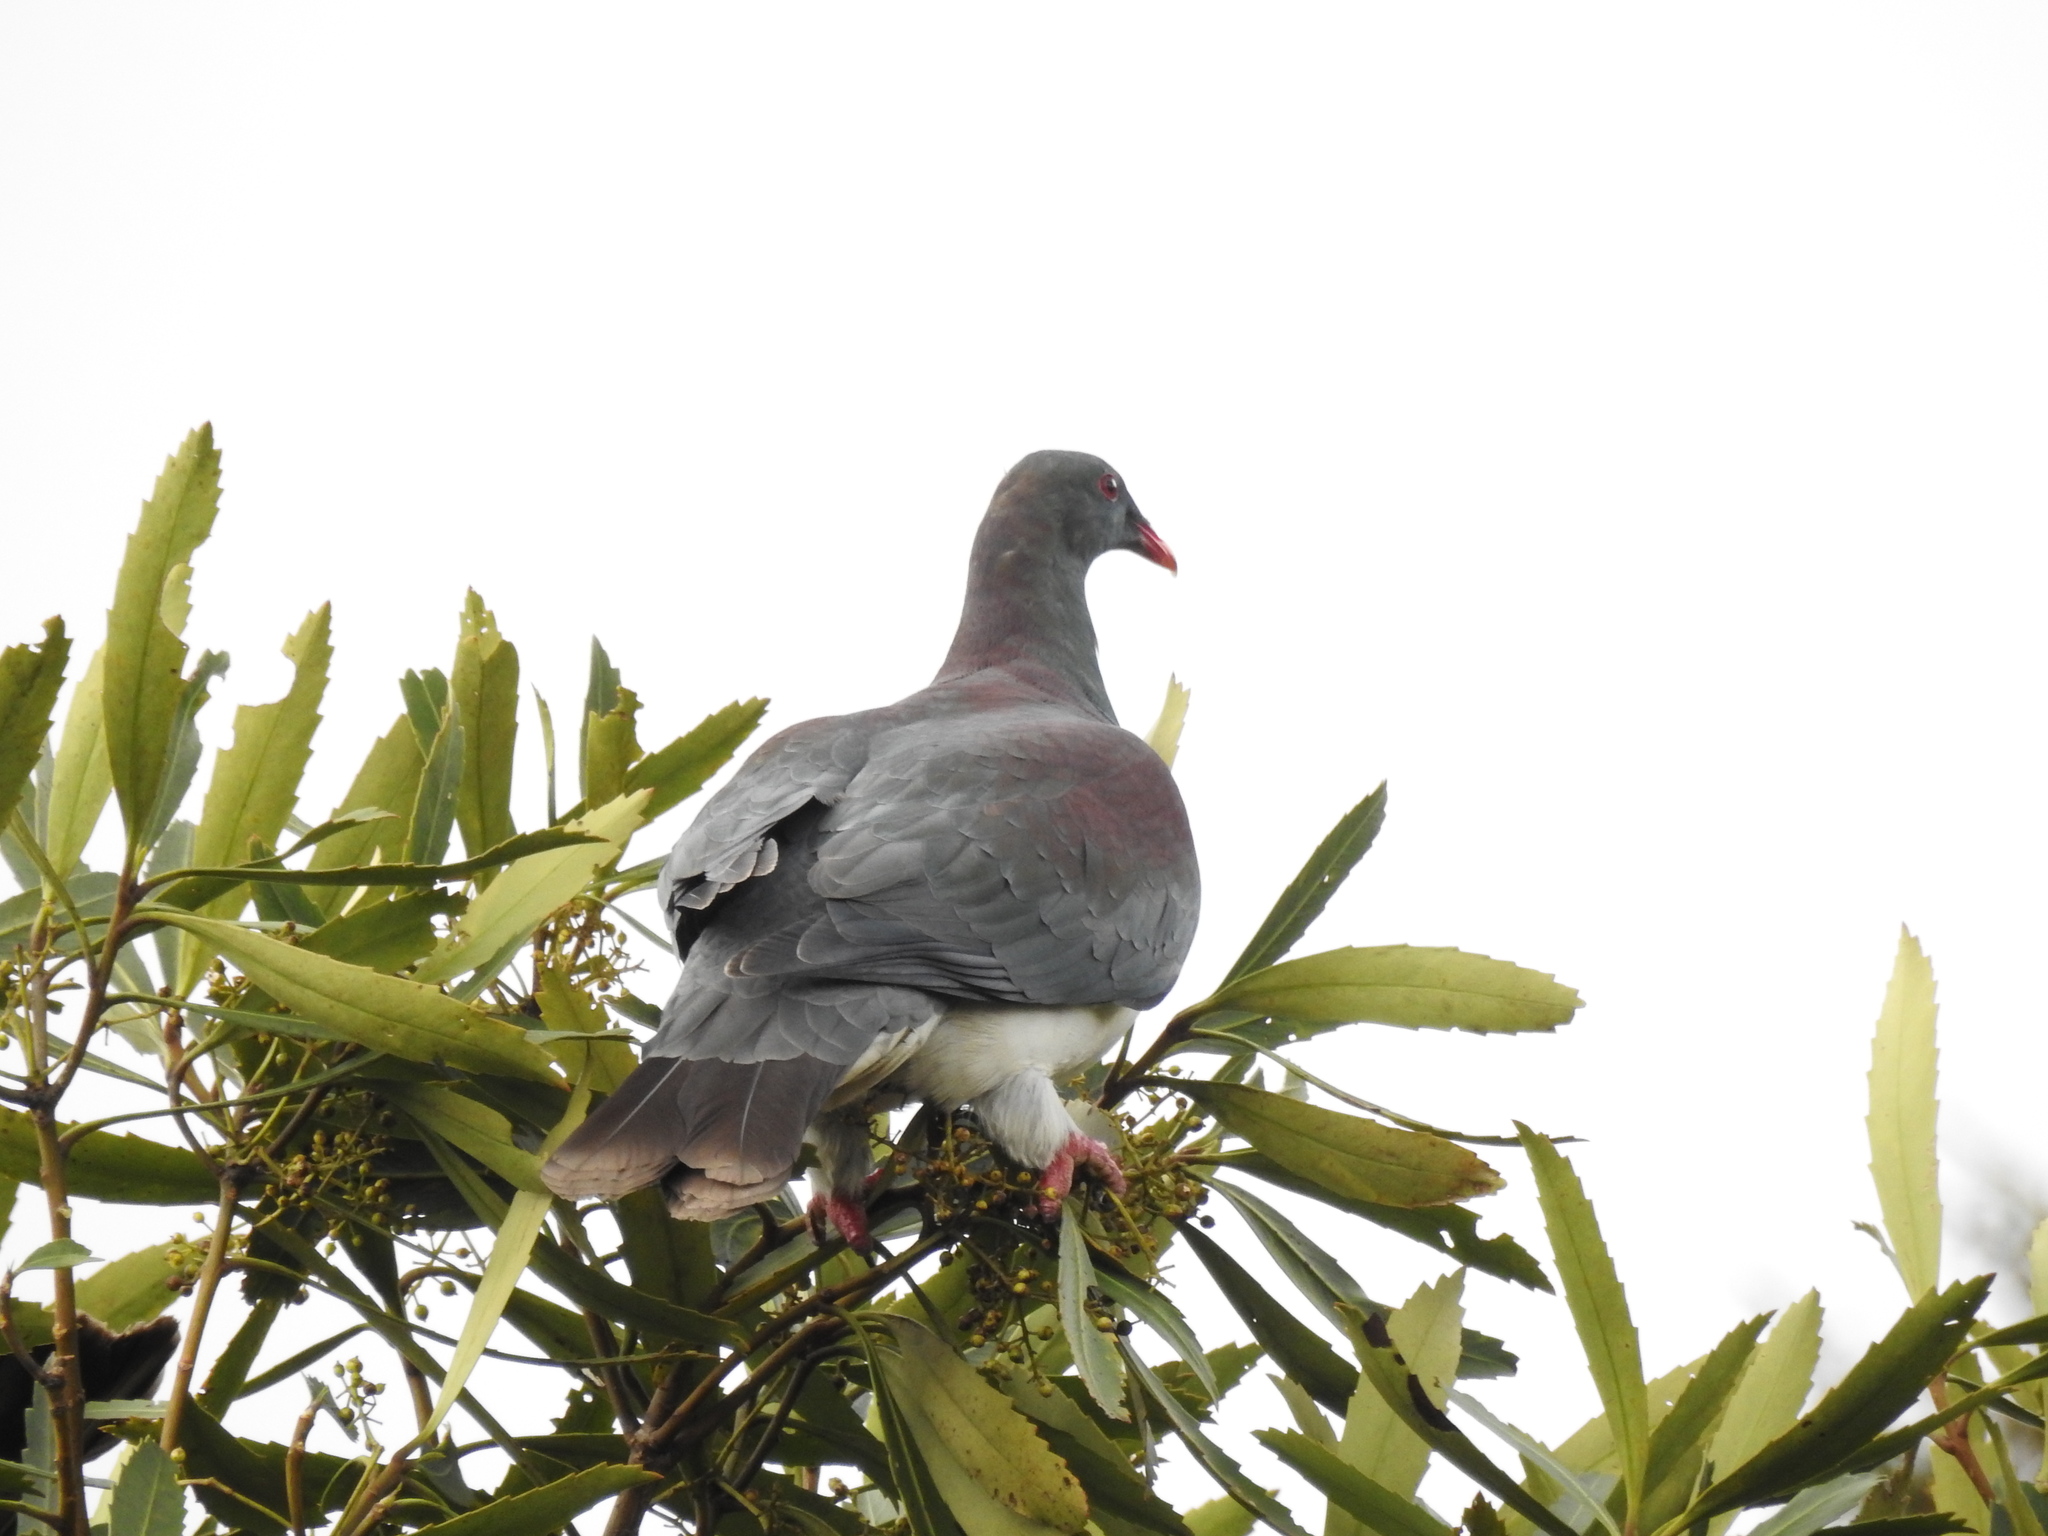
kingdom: Animalia
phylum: Chordata
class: Aves
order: Columbiformes
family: Columbidae
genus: Hemiphaga
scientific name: Hemiphaga novaeseelandiae
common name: New zealand pigeon
